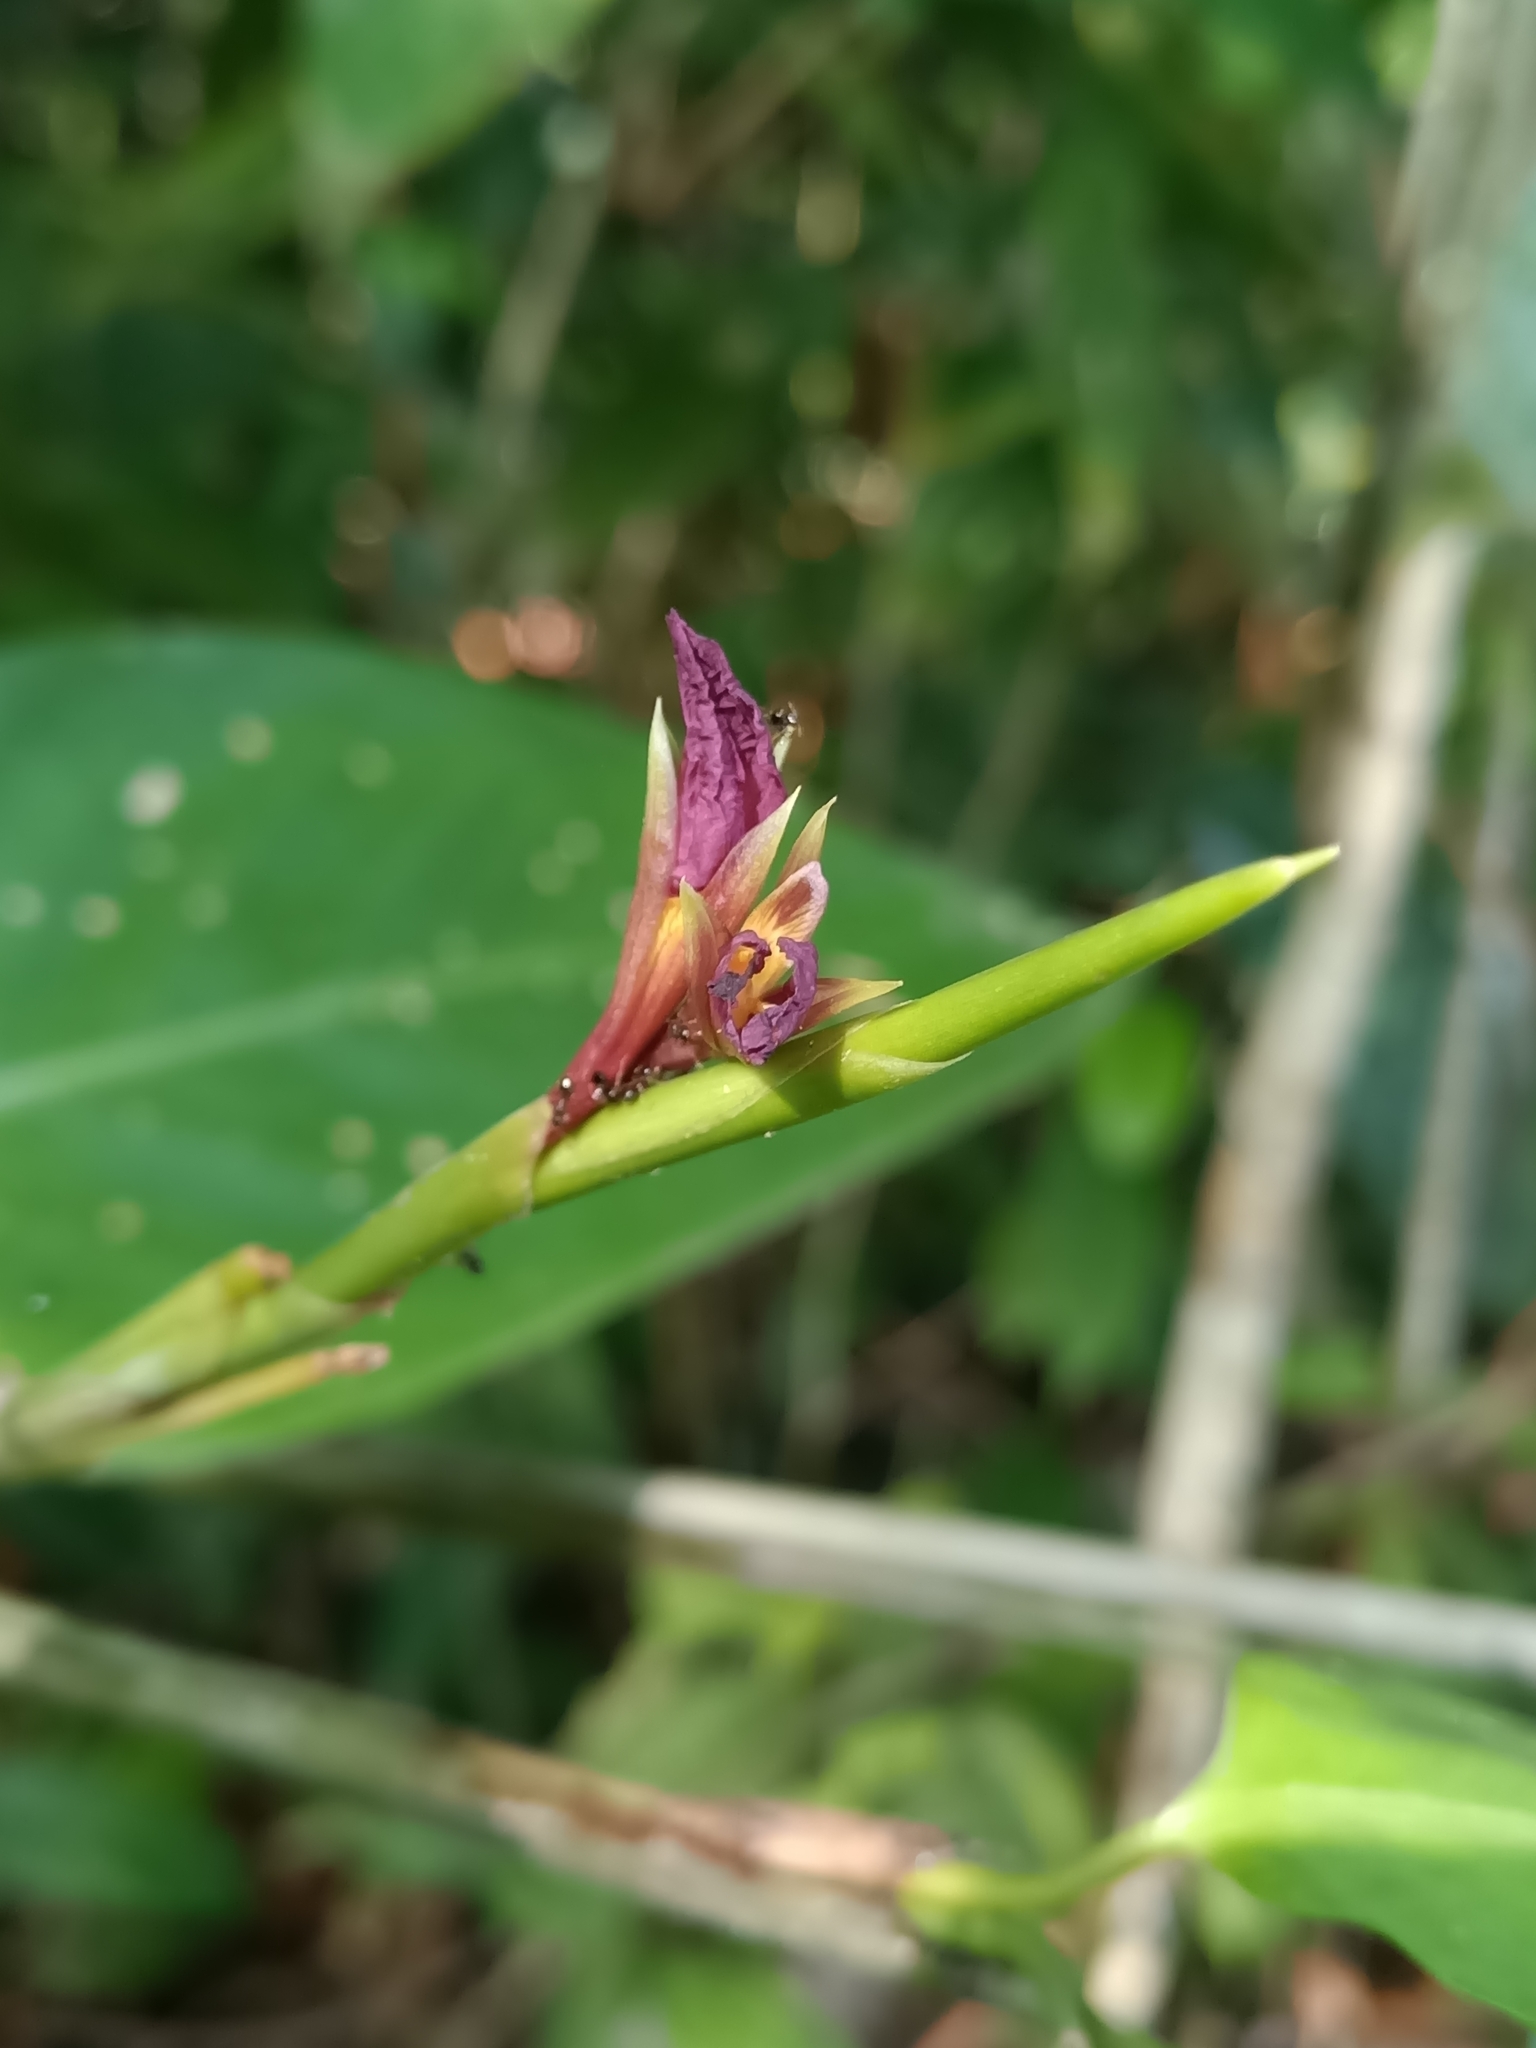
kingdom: Plantae
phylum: Tracheophyta
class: Liliopsida
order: Zingiberales
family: Marantaceae
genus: Ischnosiphon
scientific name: Ischnosiphon puberulus
